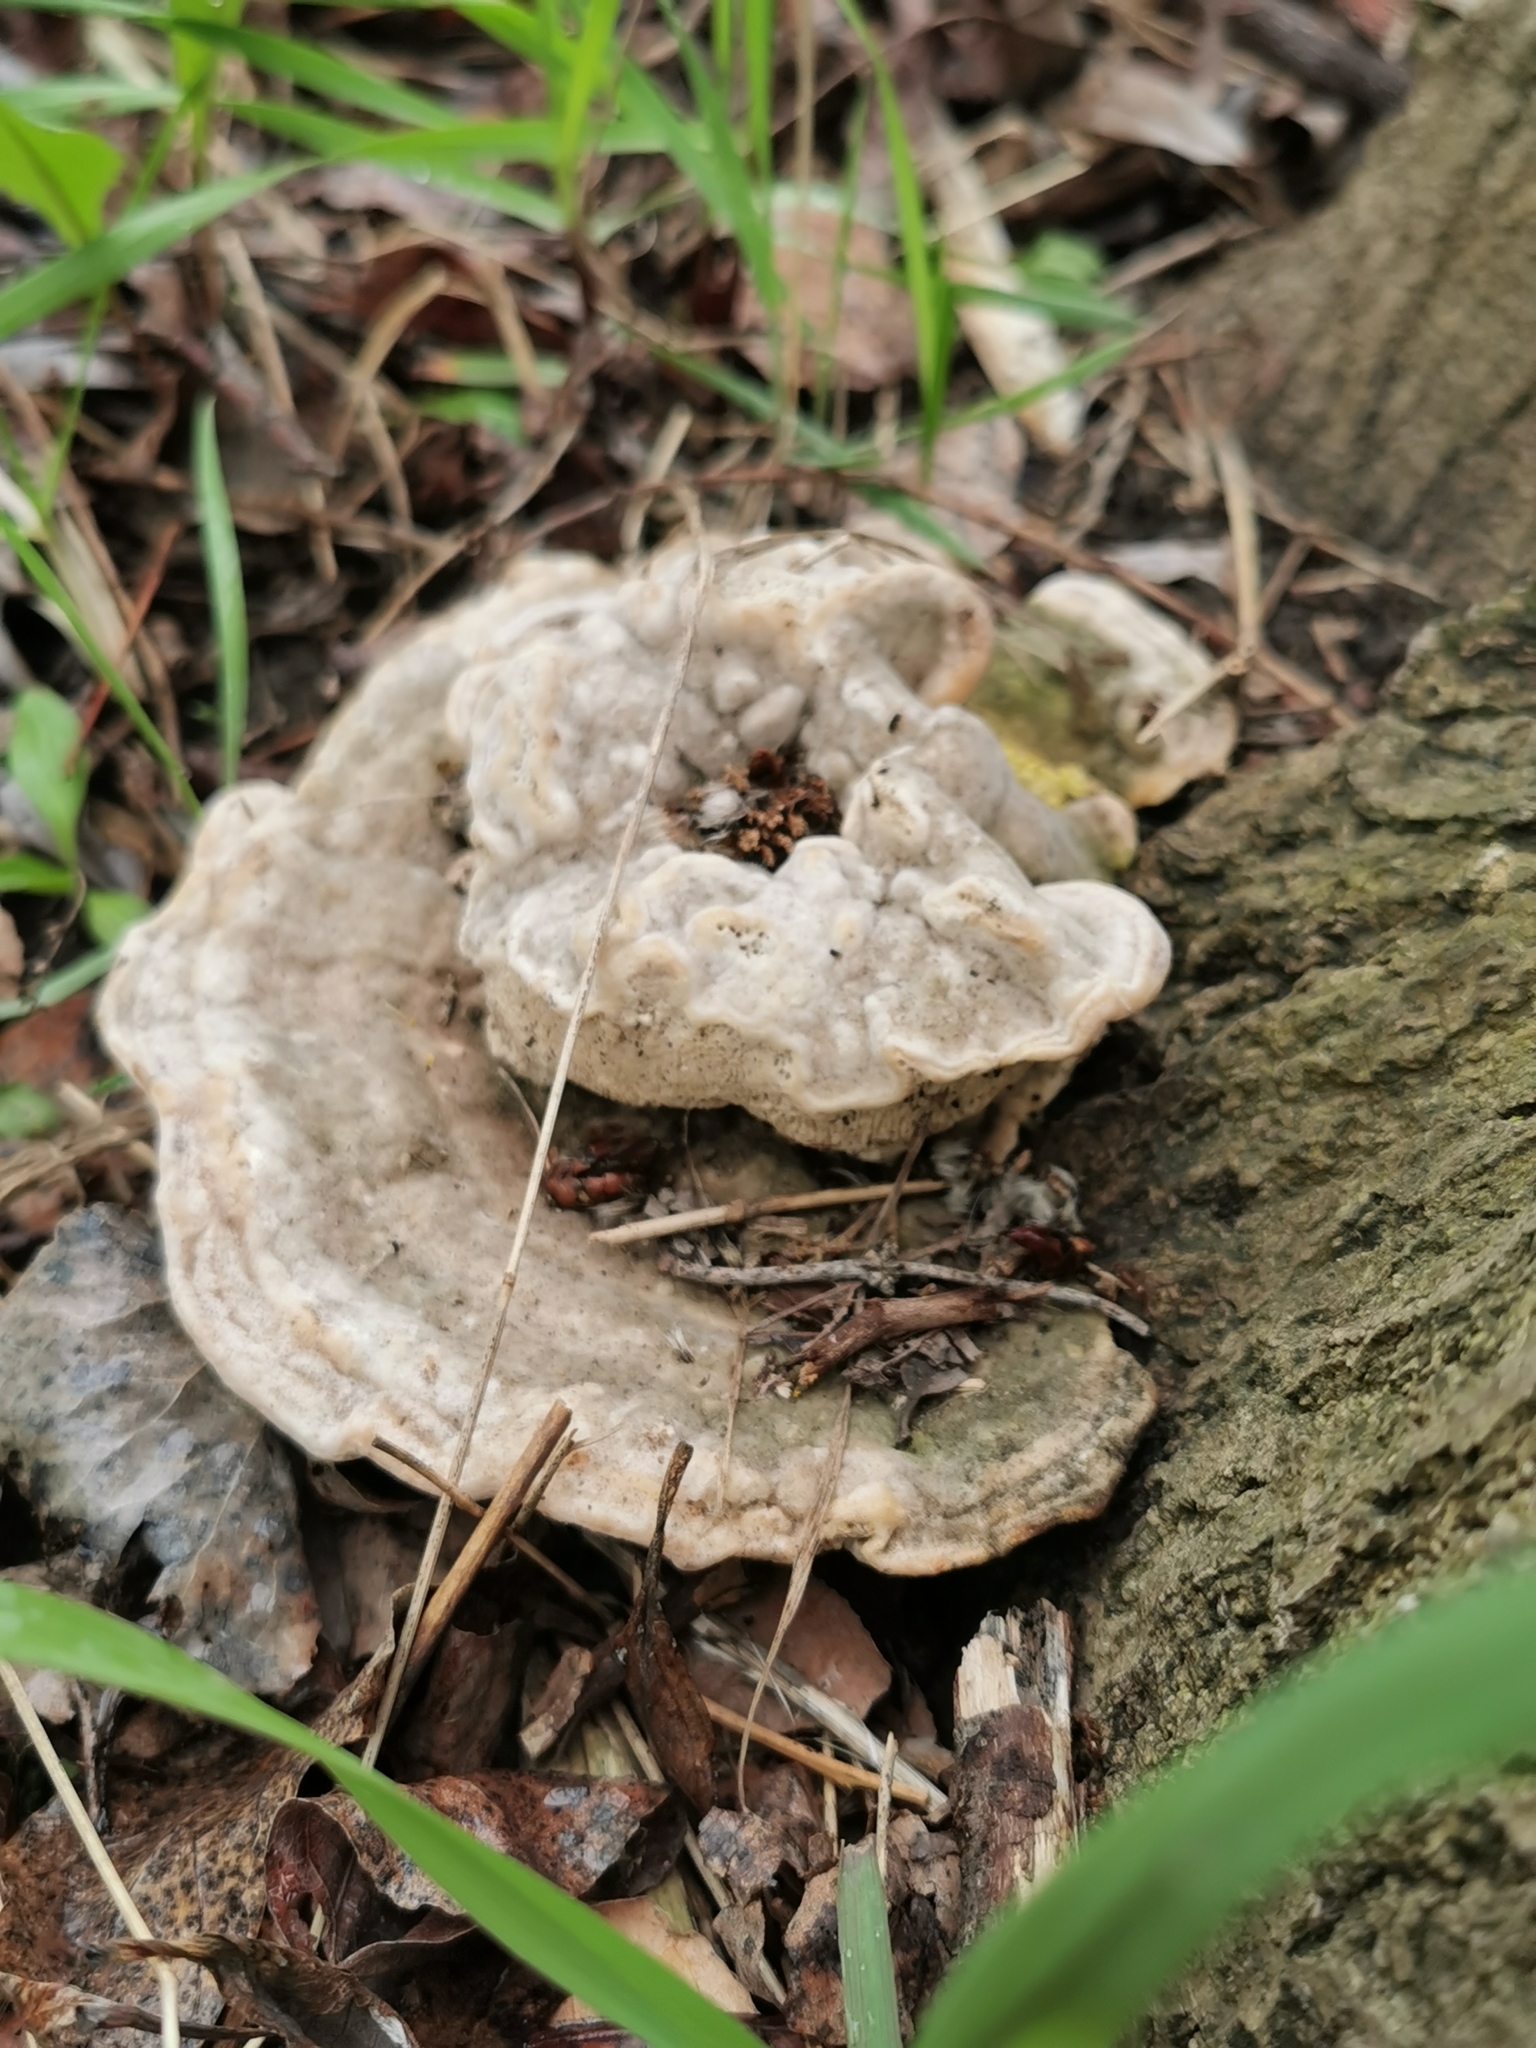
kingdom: Fungi
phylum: Basidiomycota
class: Agaricomycetes
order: Polyporales
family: Polyporaceae
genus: Trametes
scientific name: Trametes gibbosa
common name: Lumpy bracket
